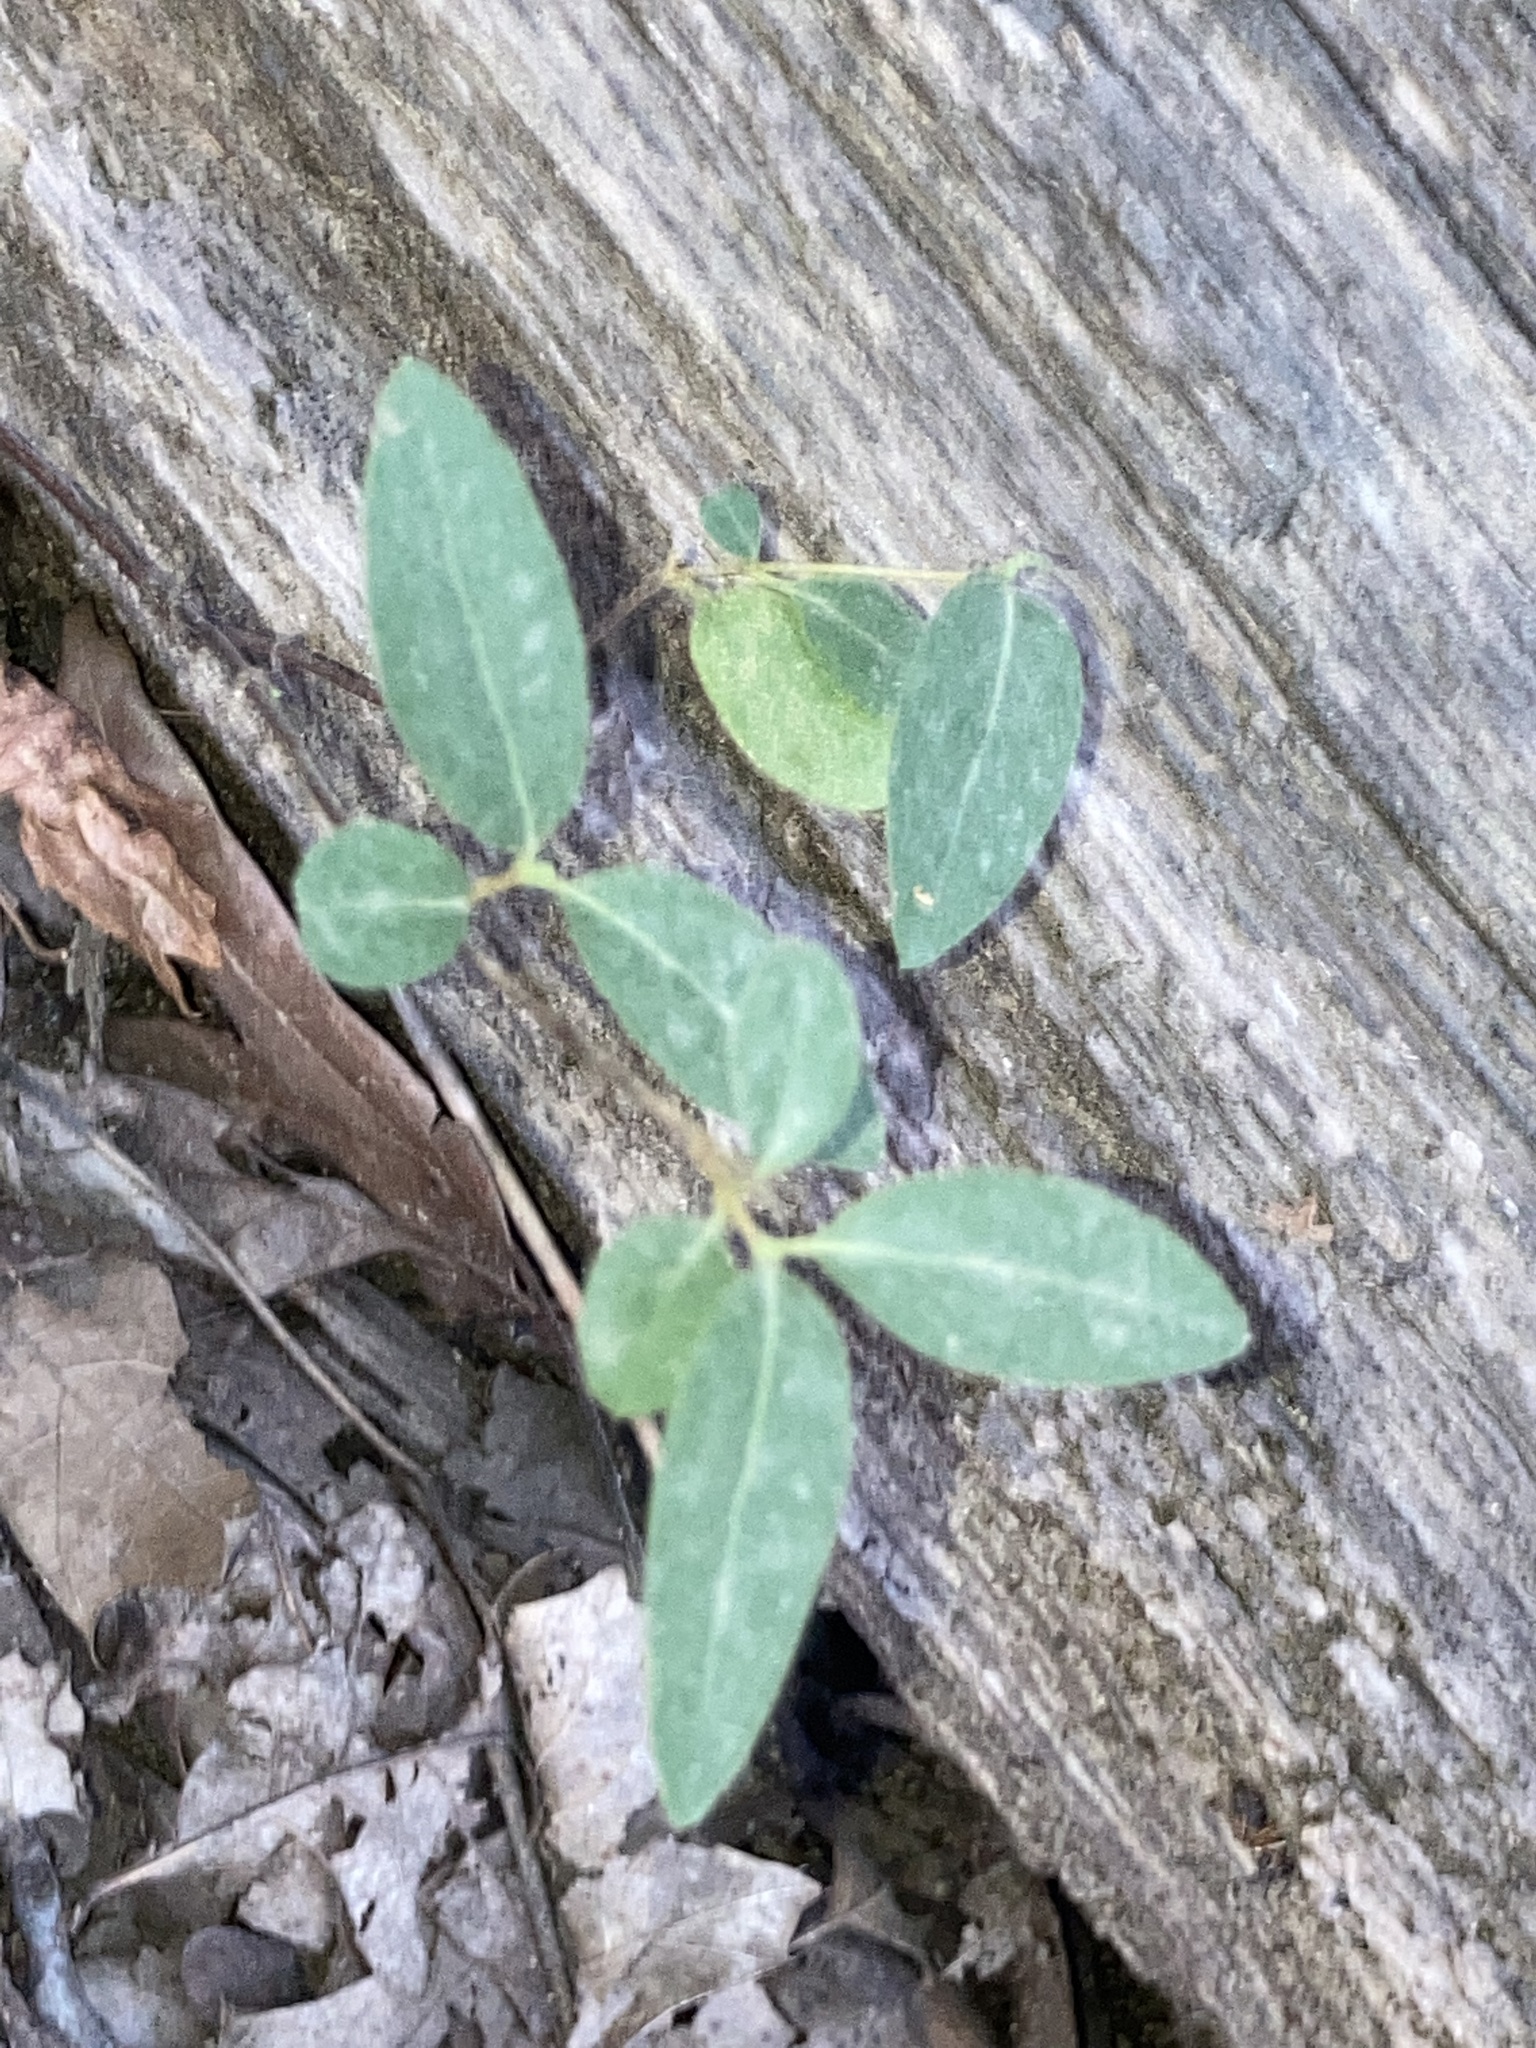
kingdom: Plantae
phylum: Tracheophyta
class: Magnoliopsida
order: Dipsacales
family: Caprifoliaceae
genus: Lonicera
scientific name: Lonicera japonica
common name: Japanese honeysuckle
